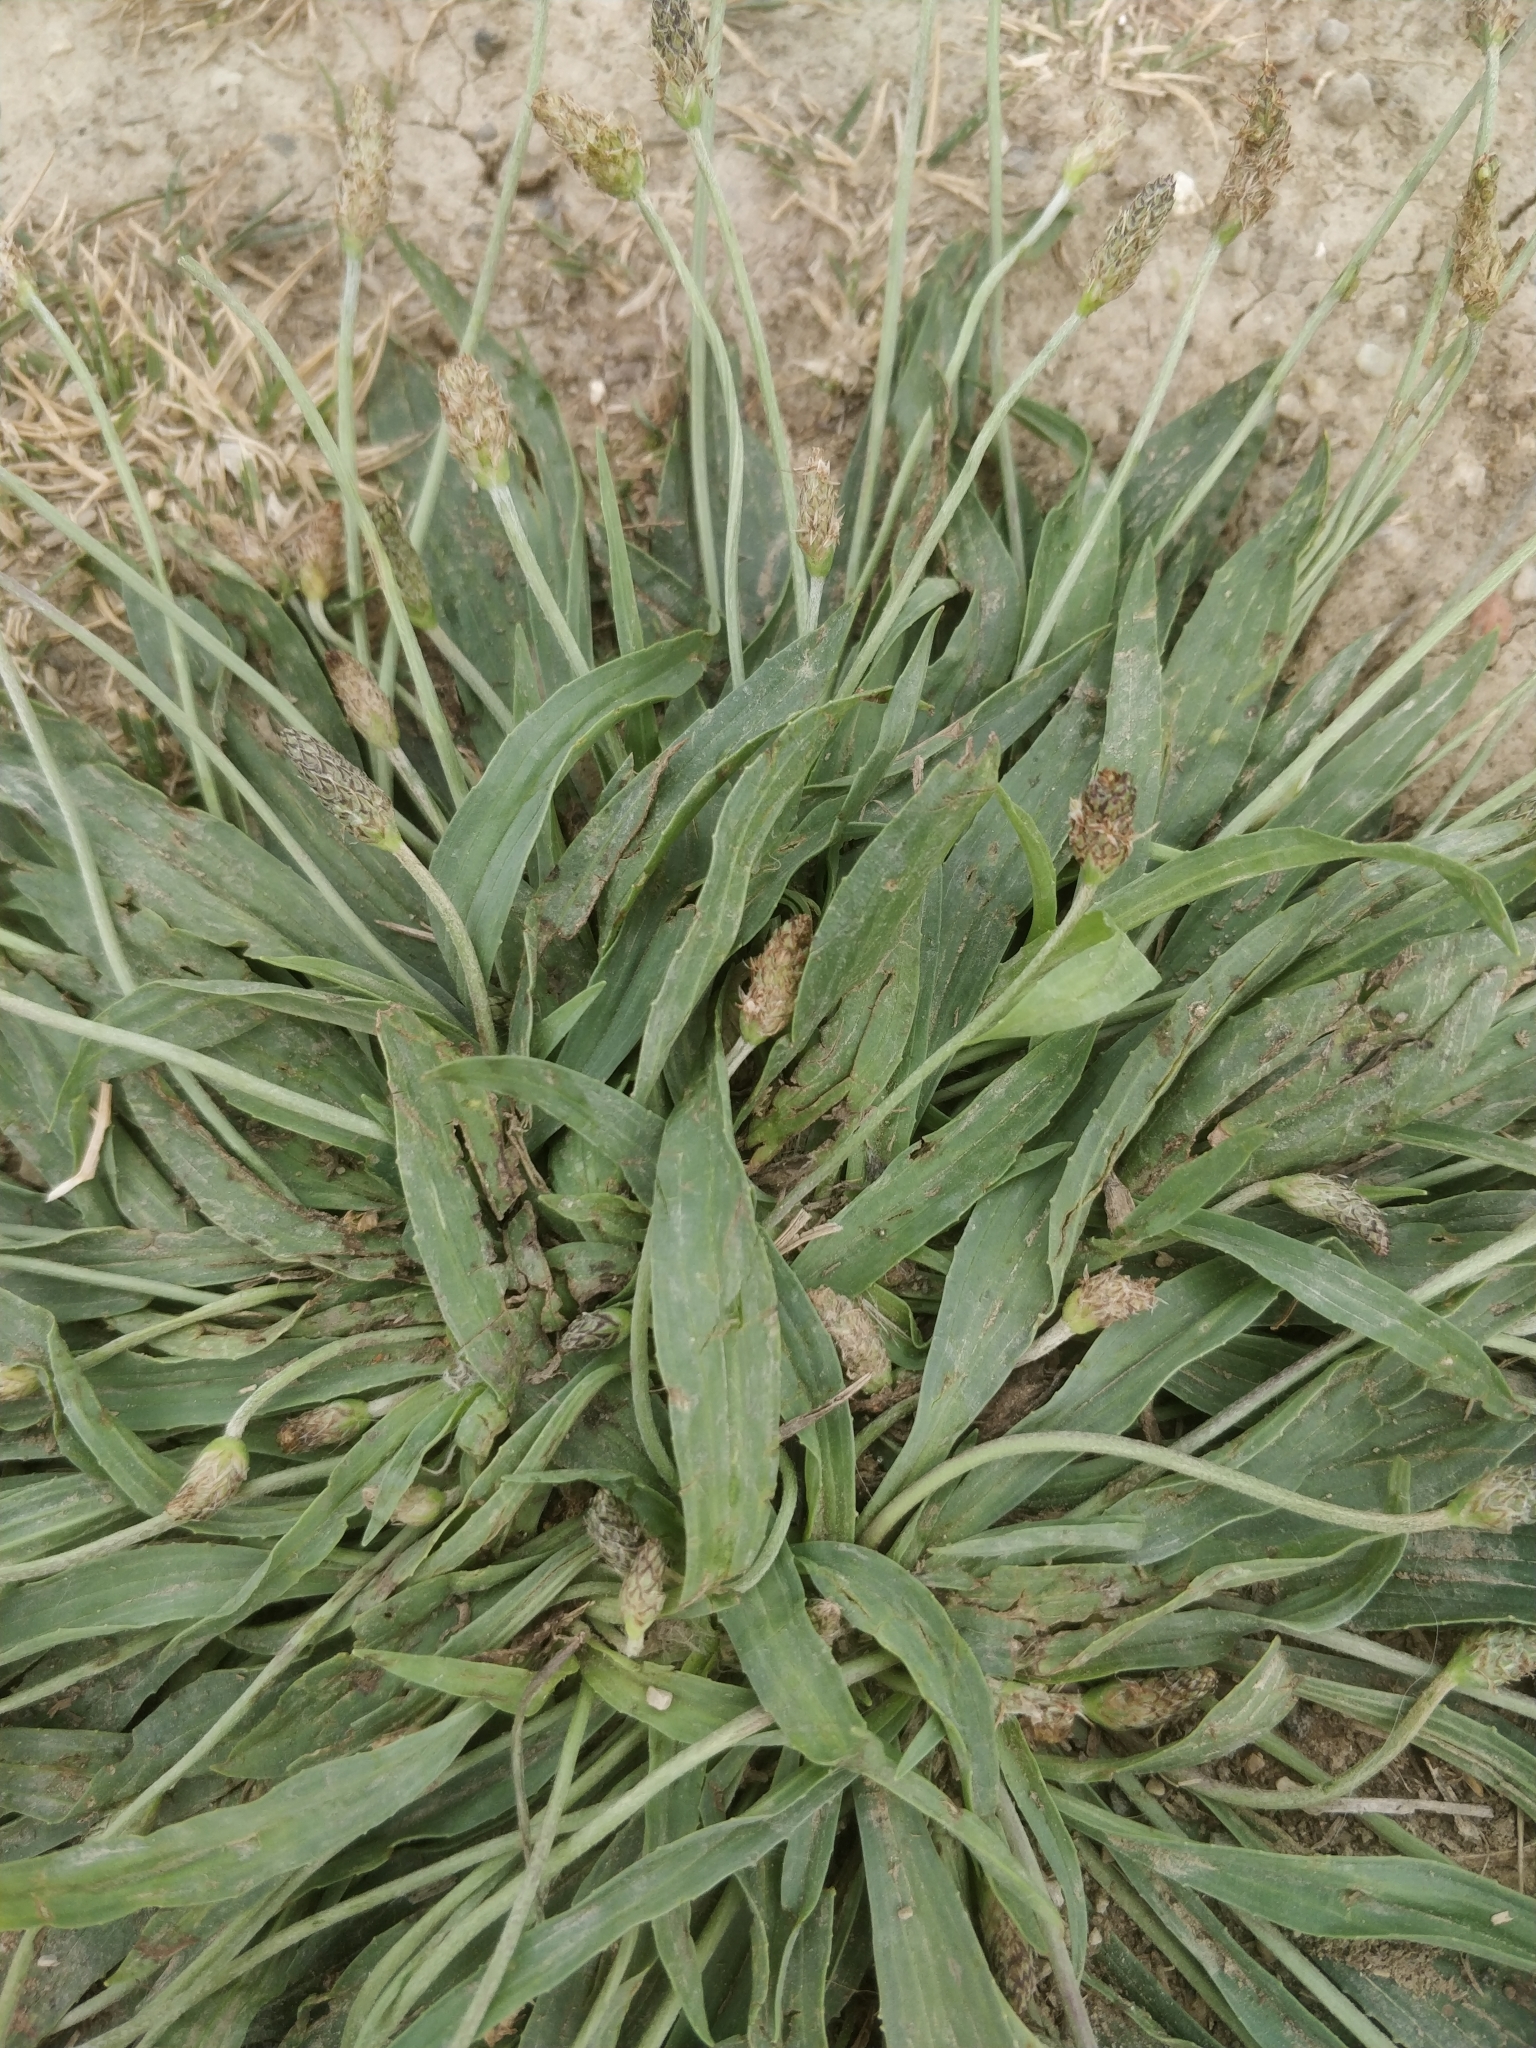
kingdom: Plantae
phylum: Tracheophyta
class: Magnoliopsida
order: Lamiales
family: Plantaginaceae
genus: Plantago
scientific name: Plantago lanceolata
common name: Ribwort plantain
